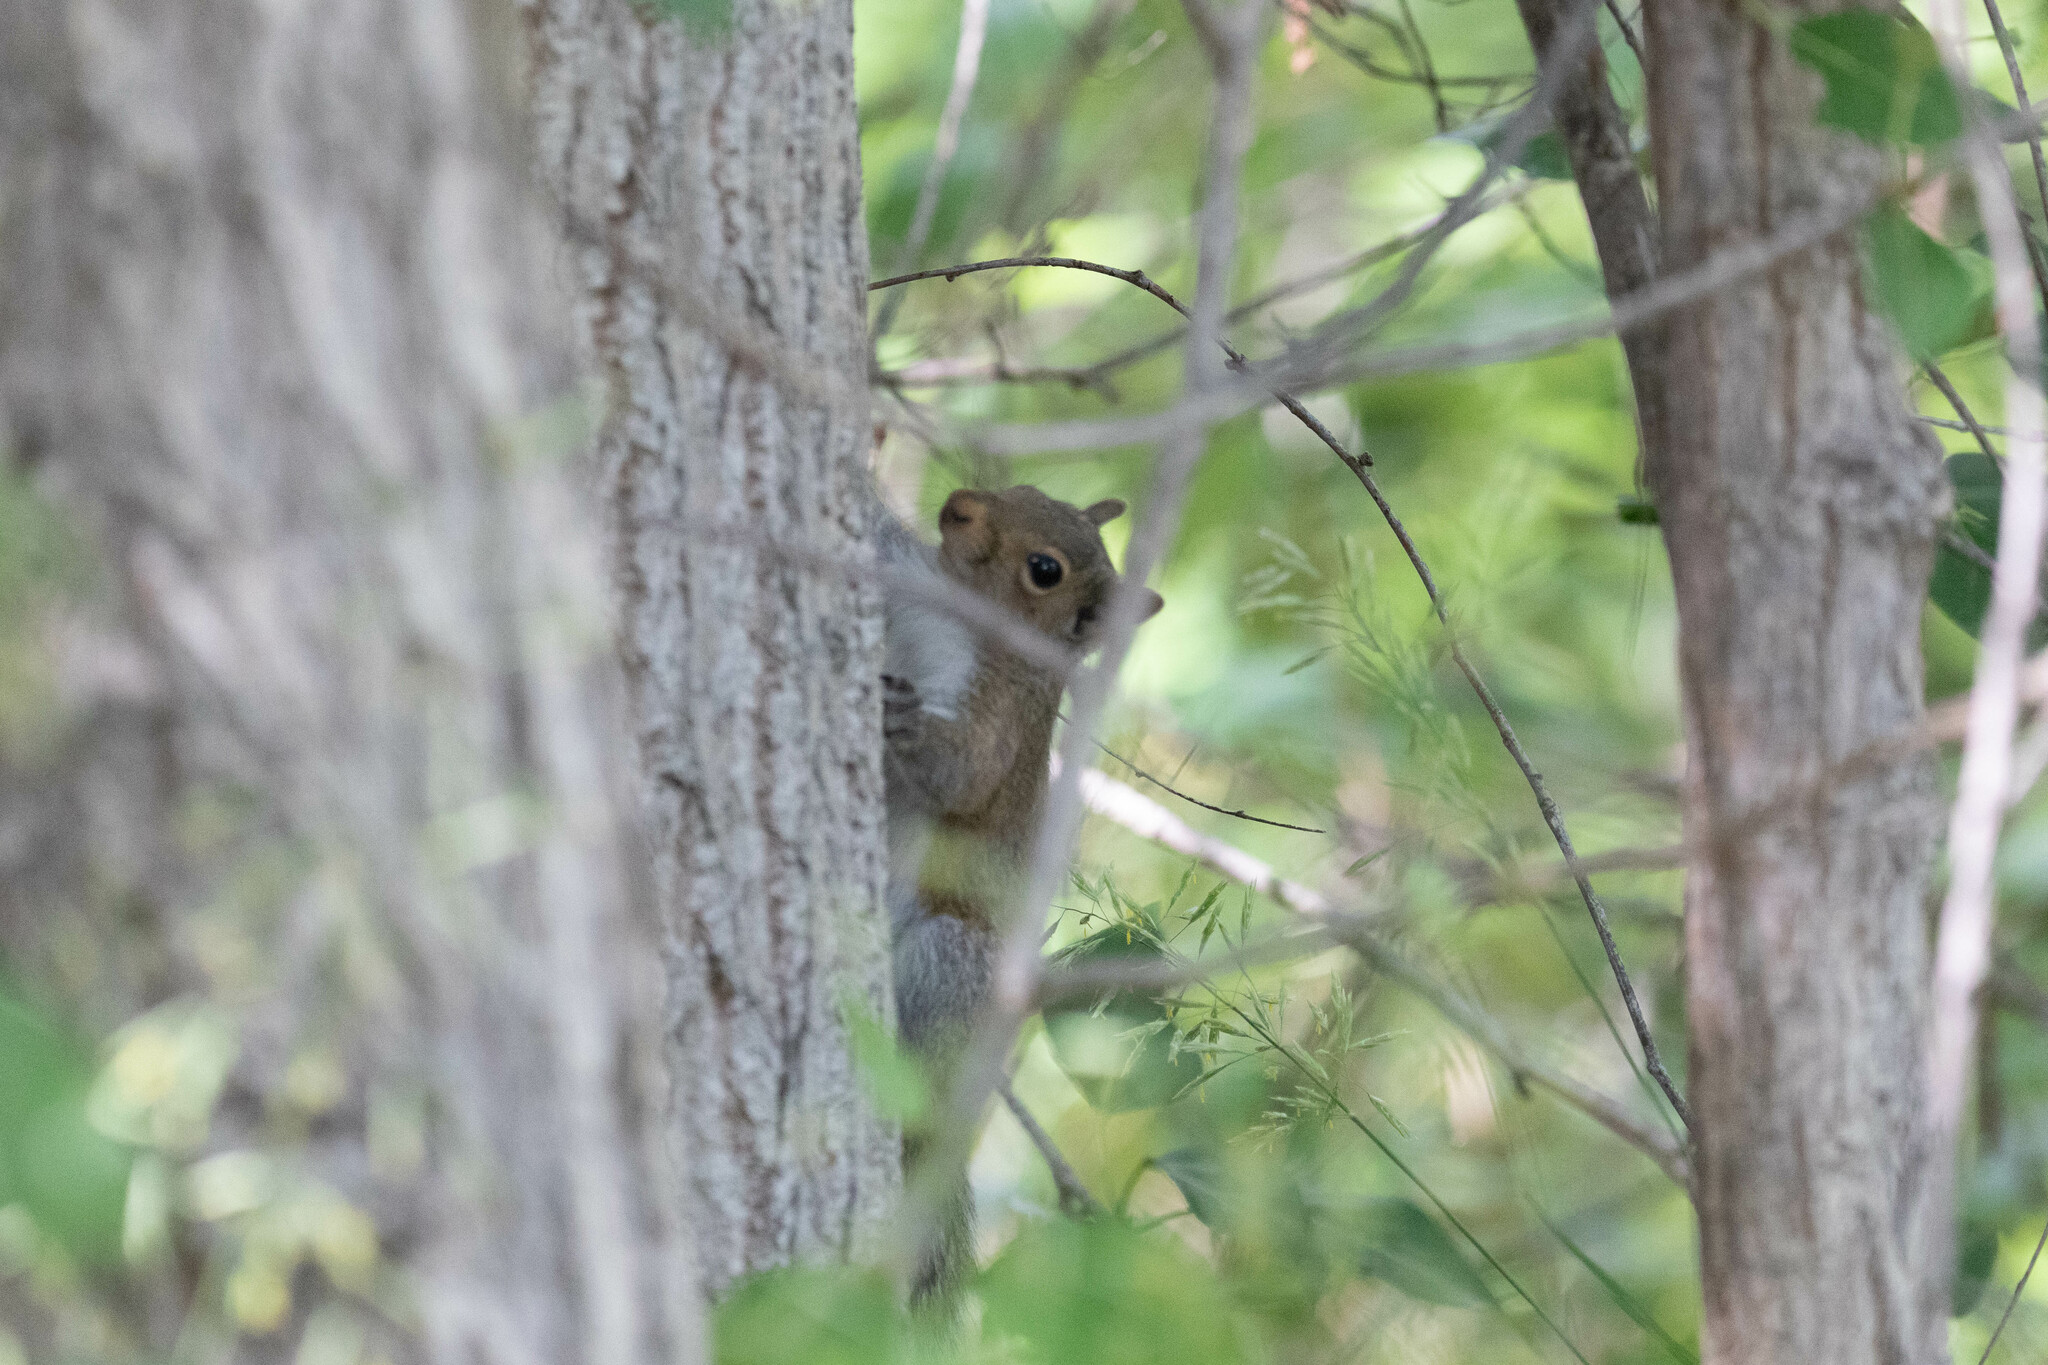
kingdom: Animalia
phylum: Chordata
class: Mammalia
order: Rodentia
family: Sciuridae
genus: Sciurus
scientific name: Sciurus carolinensis
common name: Eastern gray squirrel
